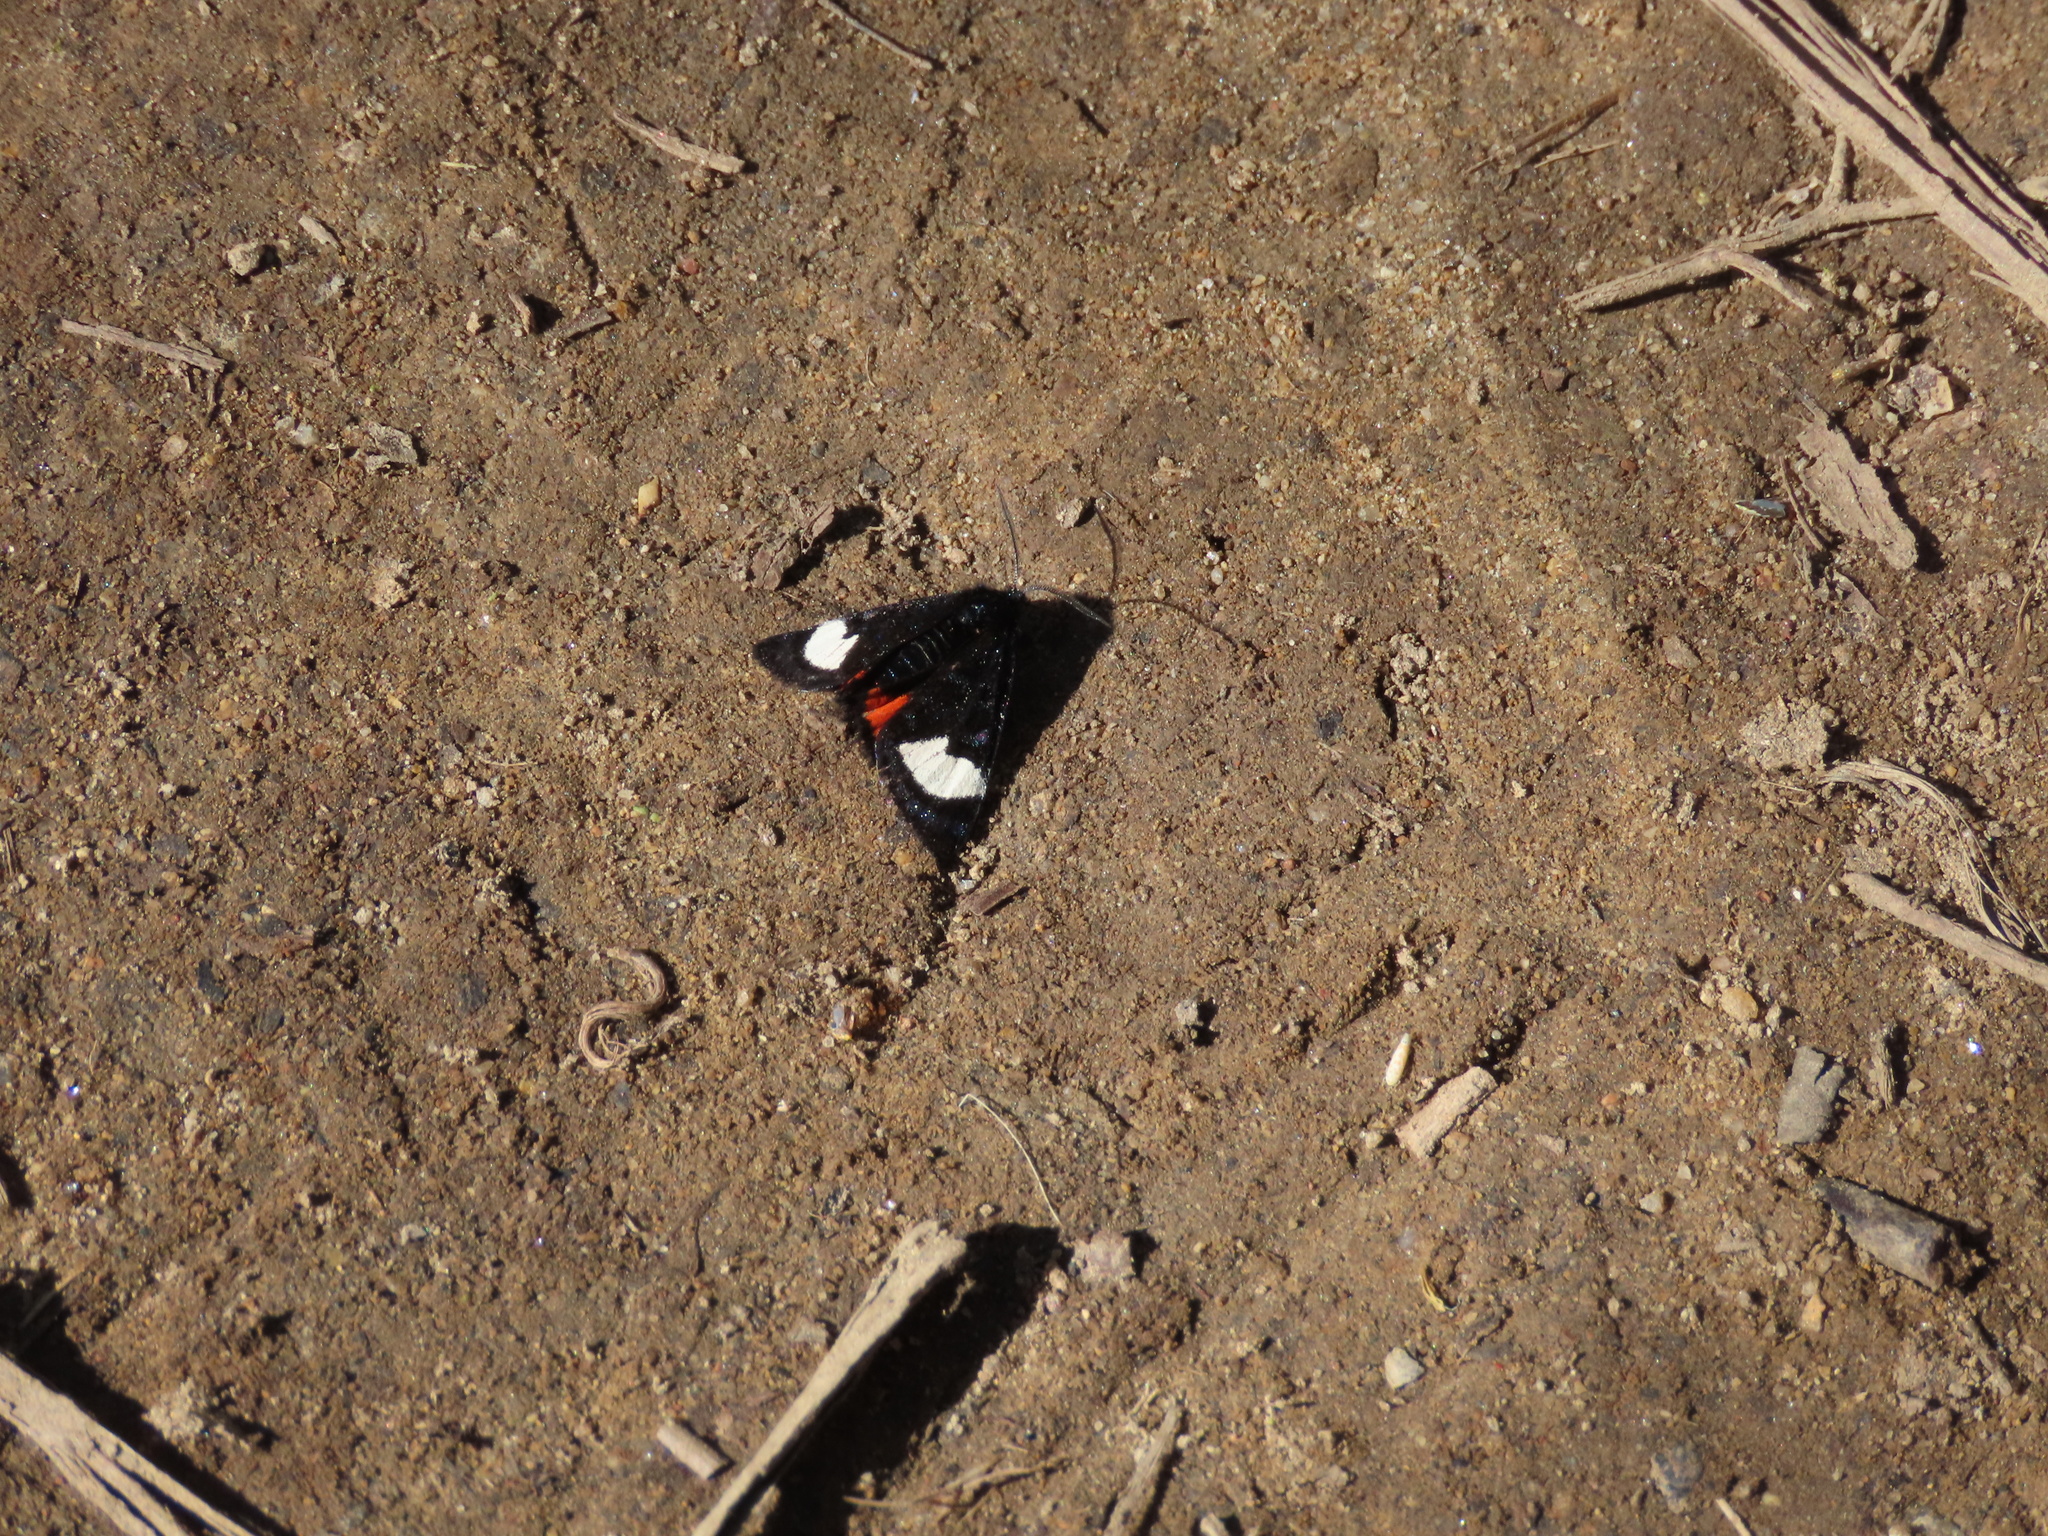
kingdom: Animalia
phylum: Arthropoda
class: Insecta
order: Lepidoptera
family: Noctuidae
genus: Psychomorpha
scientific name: Psychomorpha epimenis
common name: Grapevine epimenis moth
